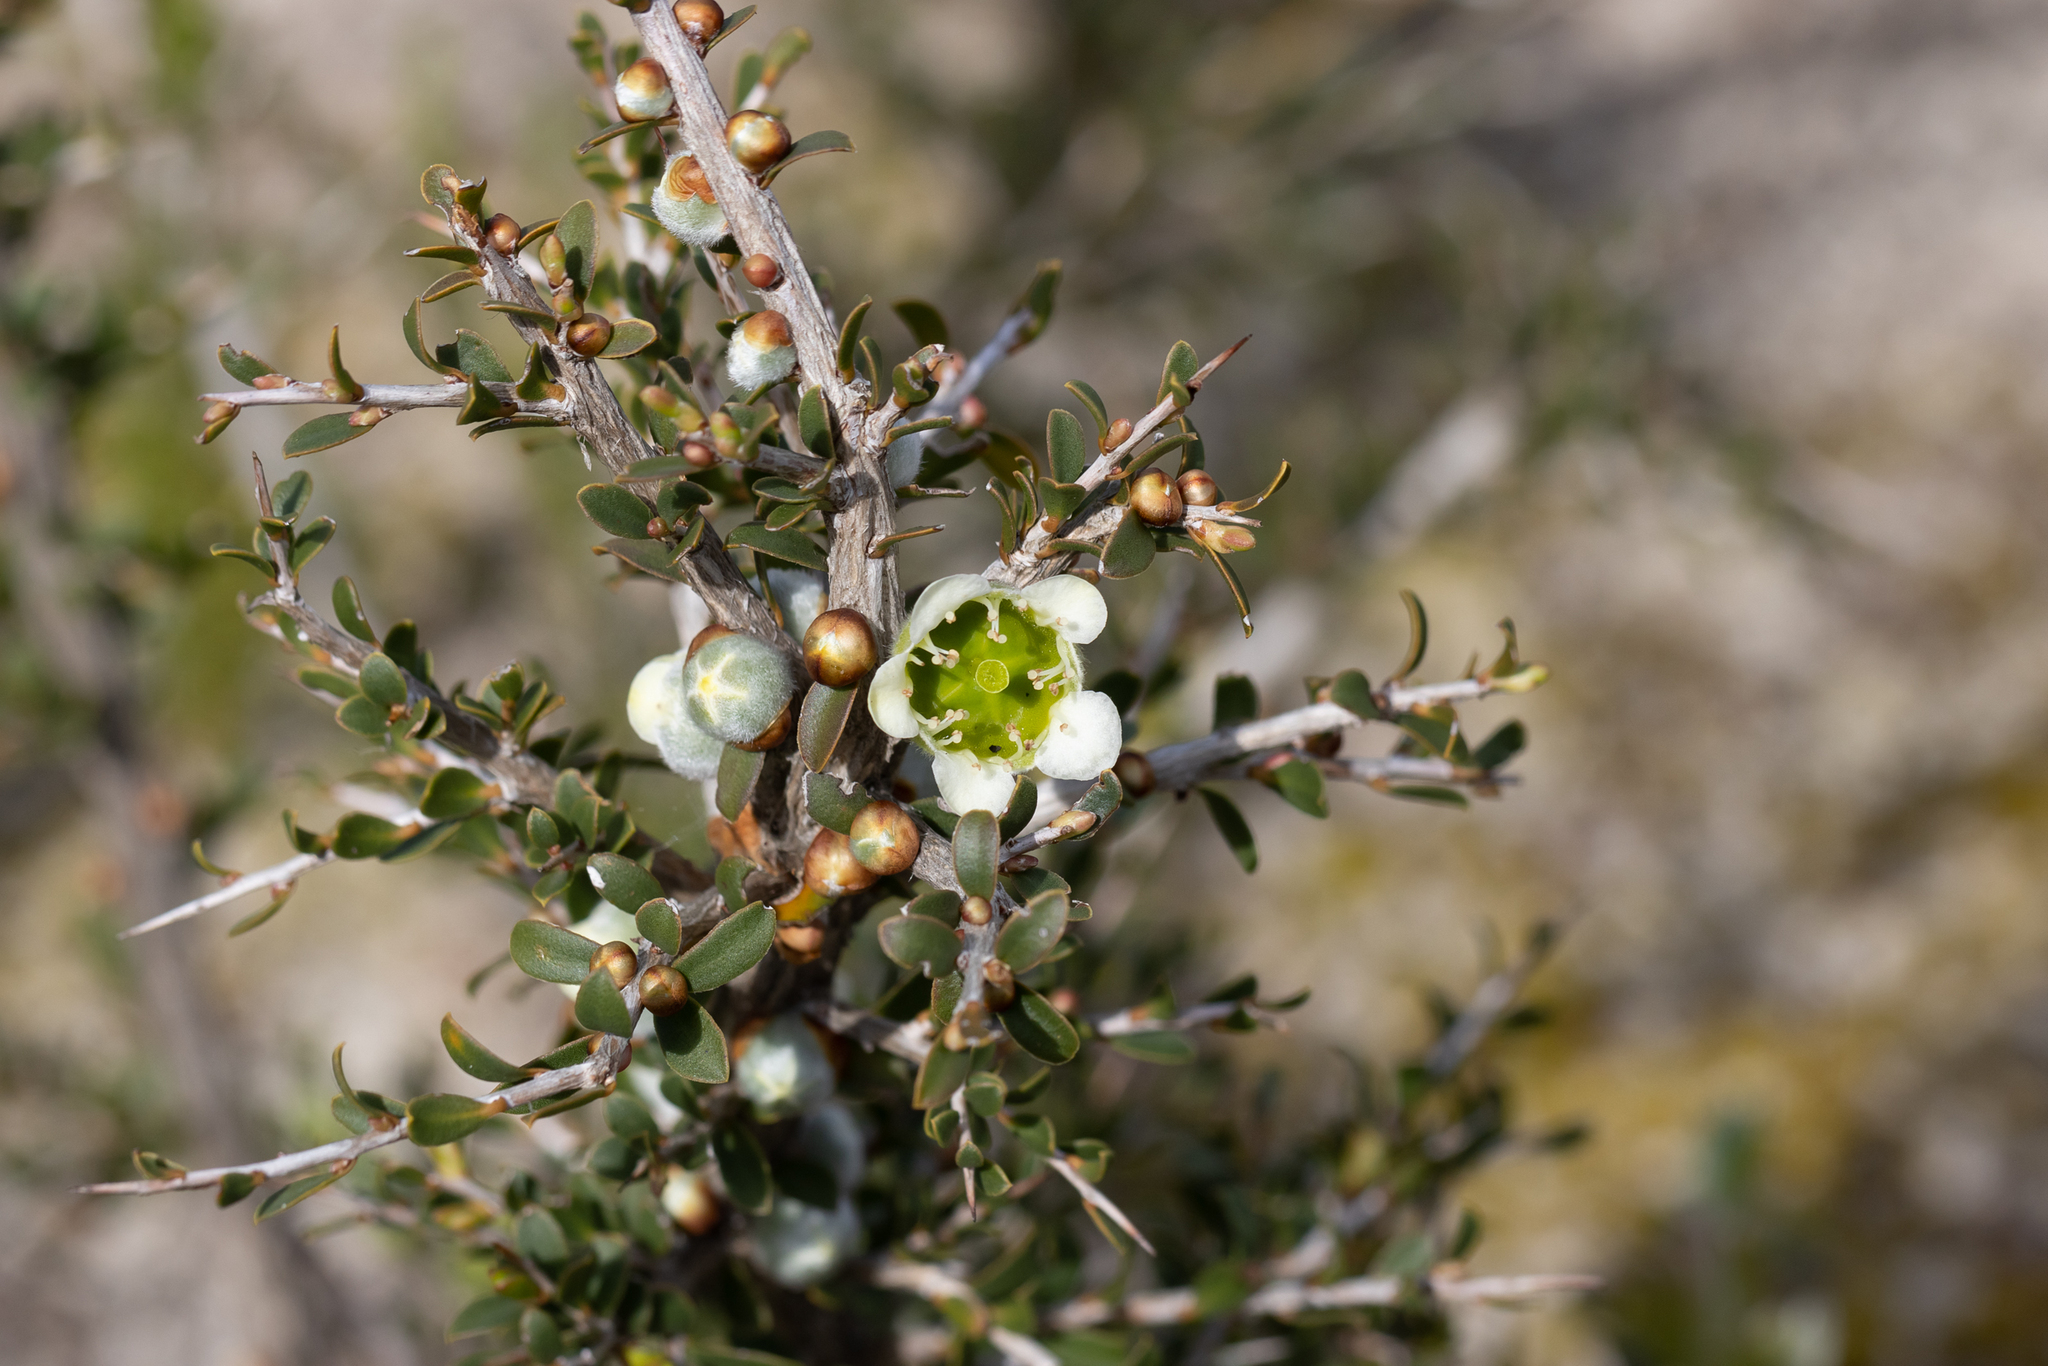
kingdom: Plantae
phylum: Tracheophyta
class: Magnoliopsida
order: Myrtales
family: Myrtaceae
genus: Leptospermum
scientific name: Leptospermum spinescens
